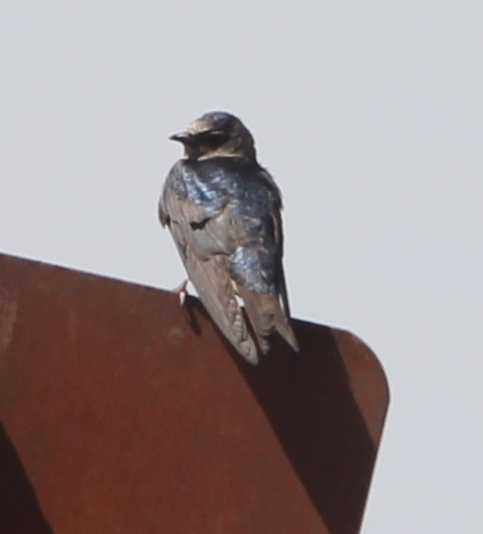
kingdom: Animalia
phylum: Chordata
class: Aves
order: Passeriformes
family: Hirundinidae
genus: Progne
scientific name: Progne elegans
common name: Southern martin
